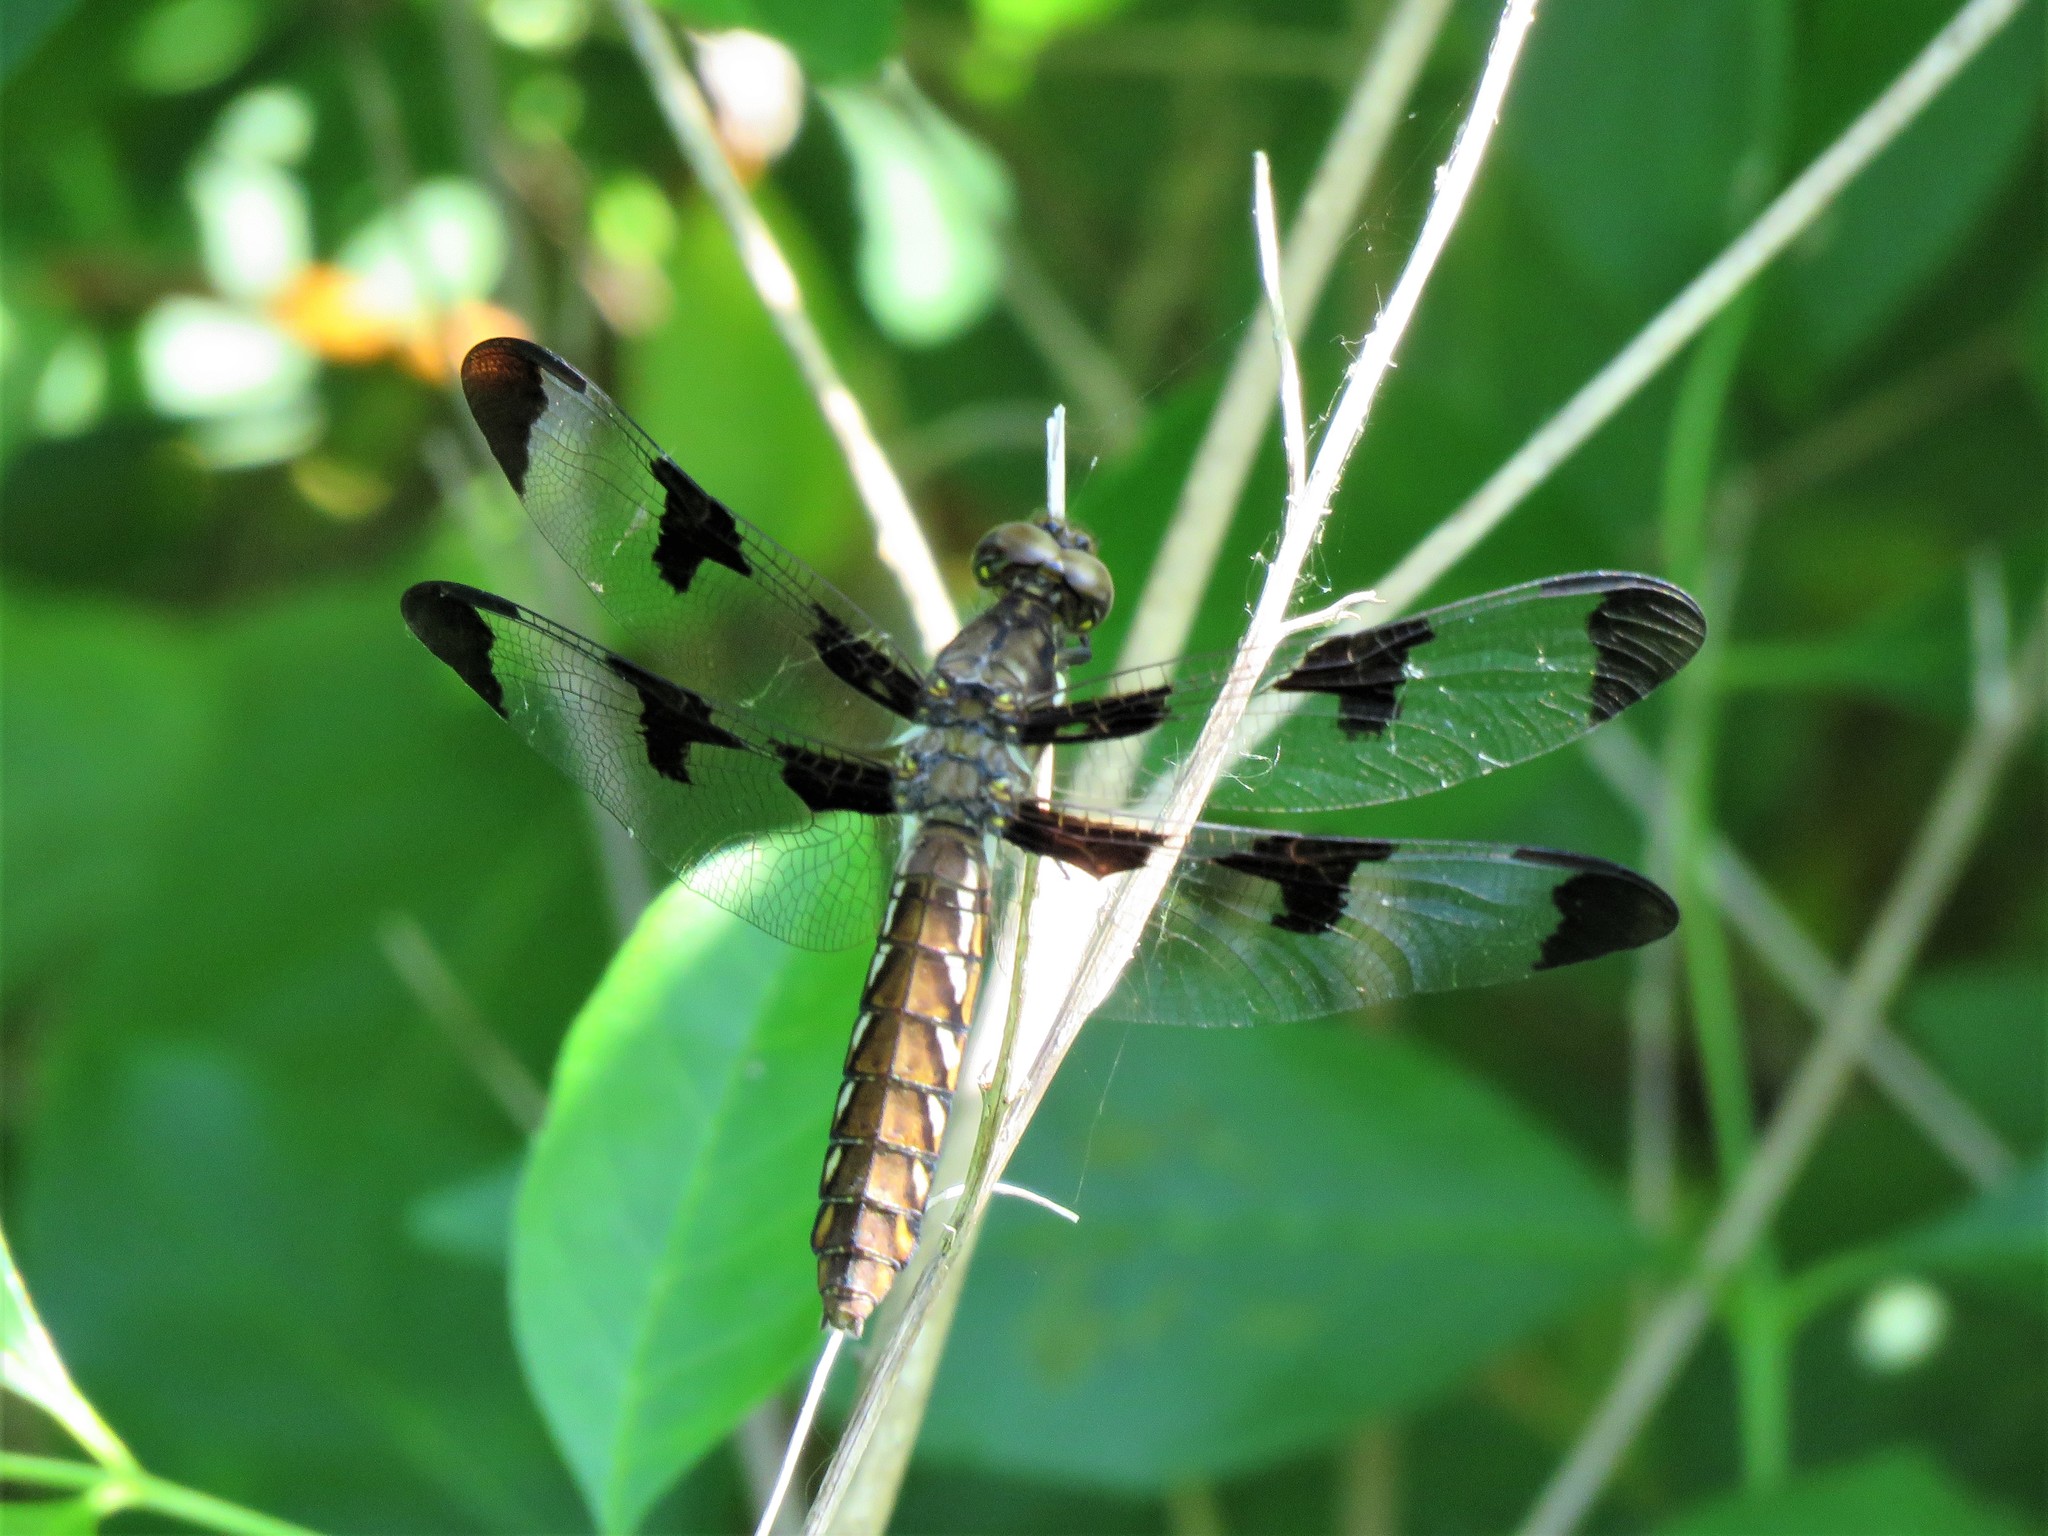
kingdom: Animalia
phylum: Arthropoda
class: Insecta
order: Odonata
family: Libellulidae
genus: Plathemis
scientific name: Plathemis lydia
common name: Common whitetail
